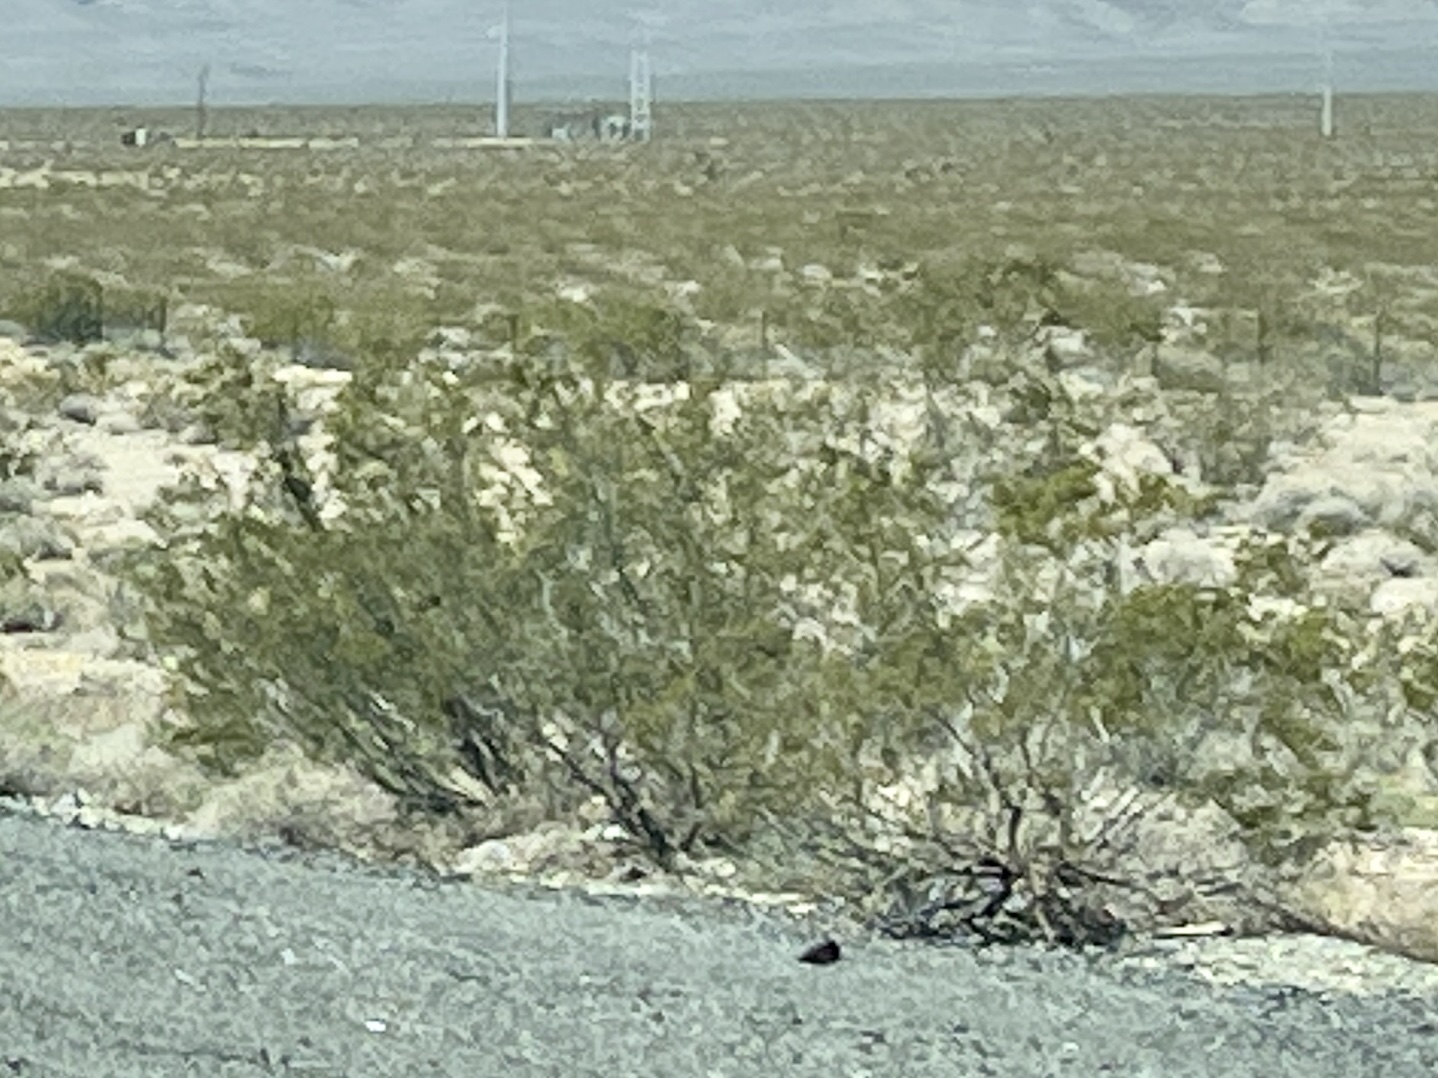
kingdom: Plantae
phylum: Tracheophyta
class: Magnoliopsida
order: Zygophyllales
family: Zygophyllaceae
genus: Larrea
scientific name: Larrea tridentata
